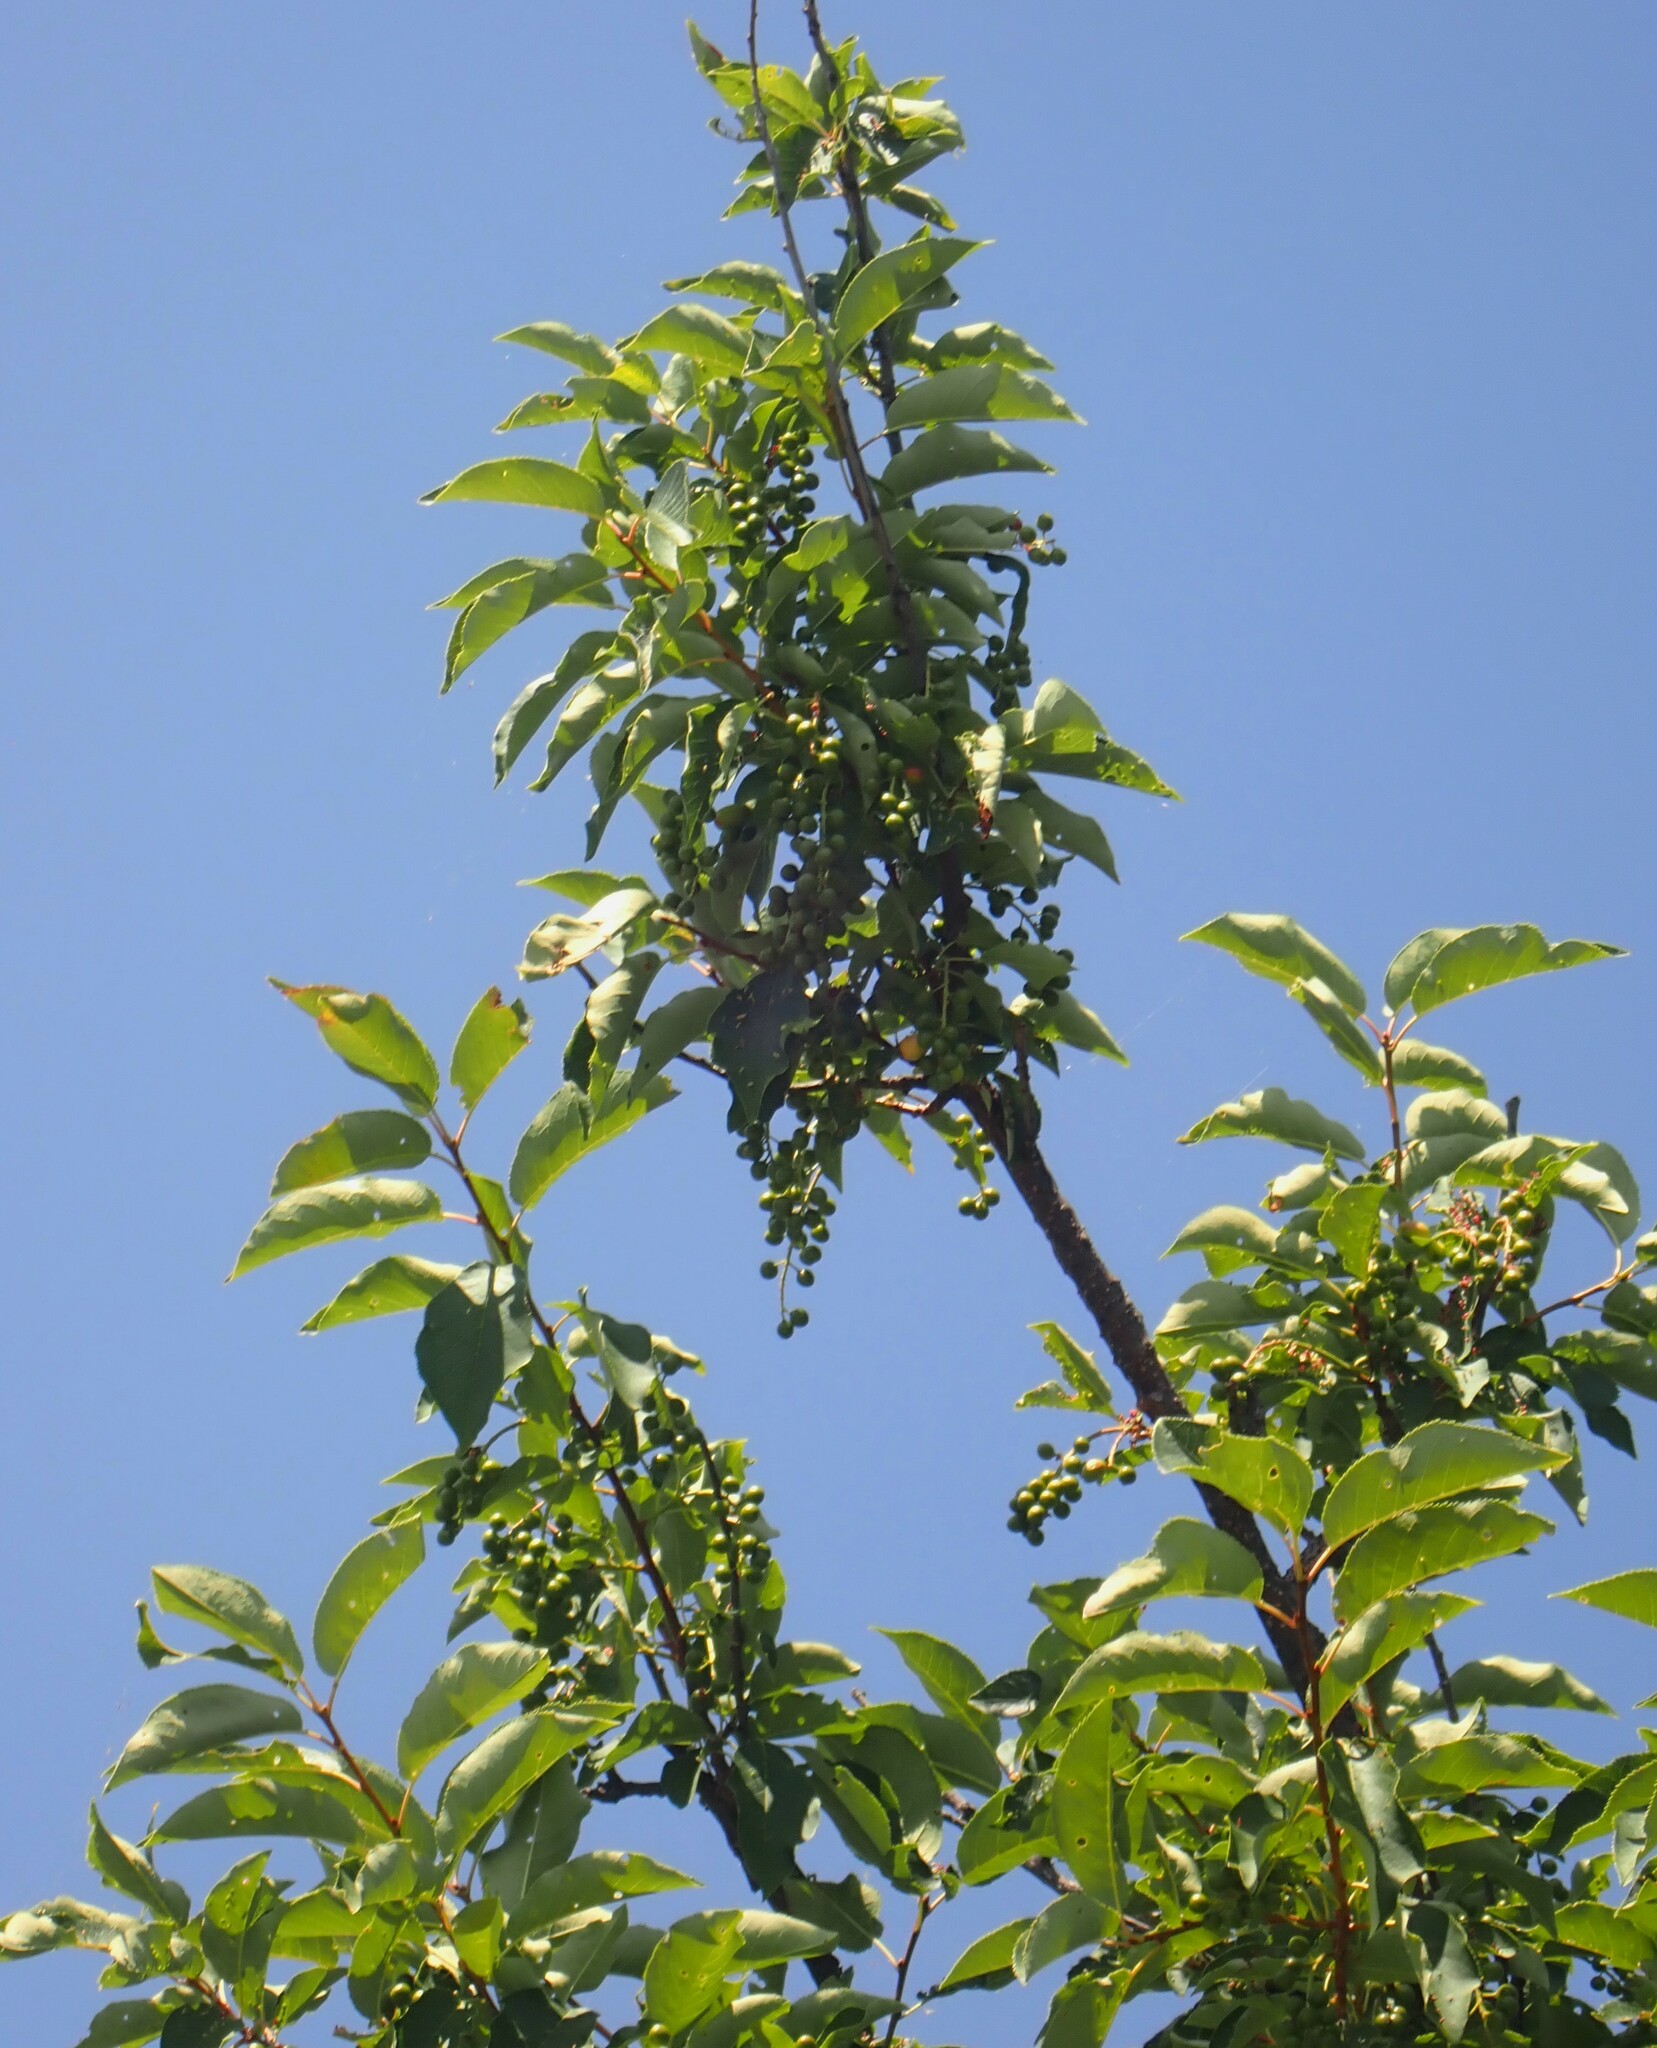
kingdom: Plantae
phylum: Tracheophyta
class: Magnoliopsida
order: Rosales
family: Rosaceae
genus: Prunus
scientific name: Prunus virginiana
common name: Chokecherry
